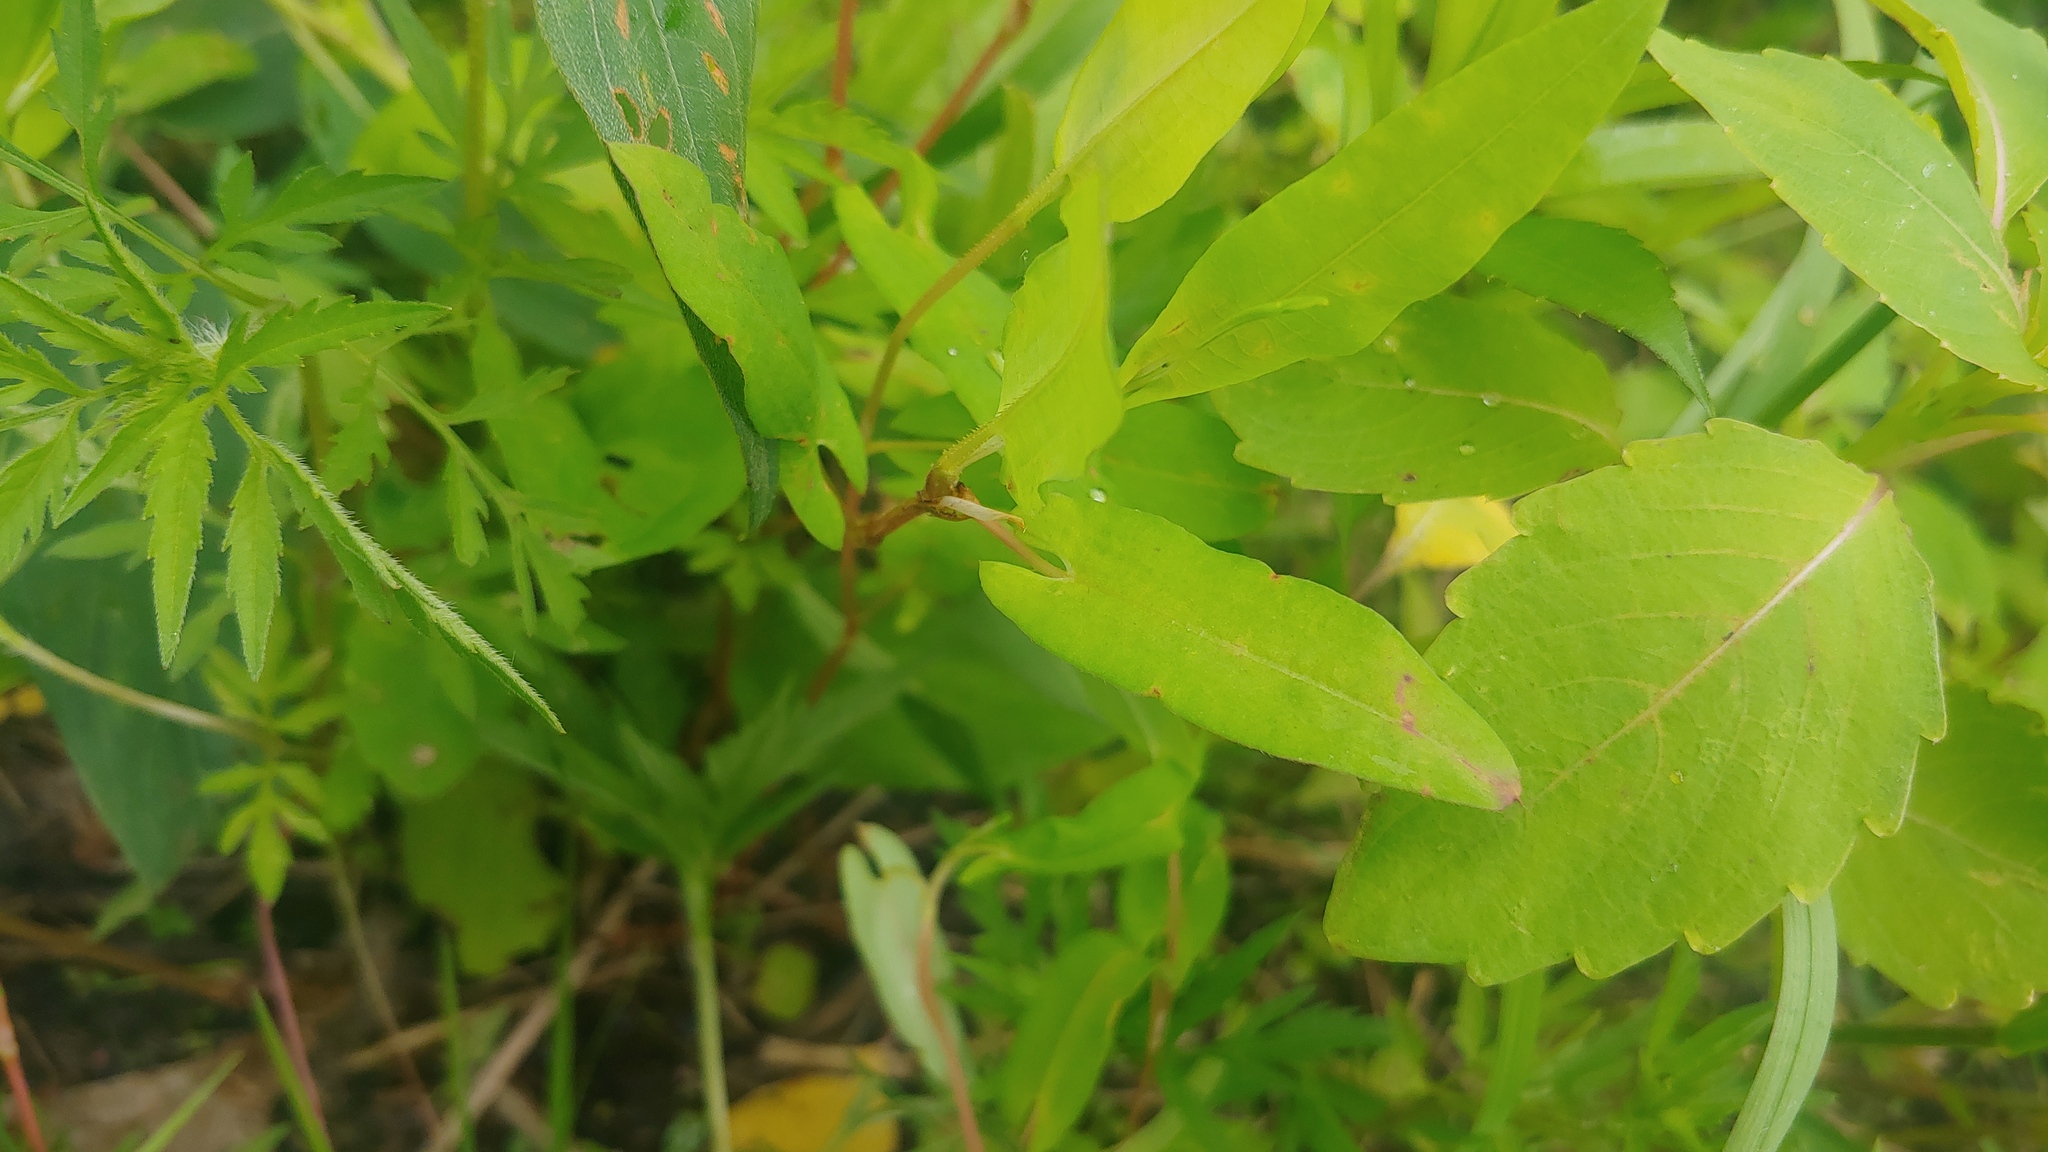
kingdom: Plantae
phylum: Tracheophyta
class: Magnoliopsida
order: Caryophyllales
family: Polygonaceae
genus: Persicaria
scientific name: Persicaria sagittata
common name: American tearthumb
